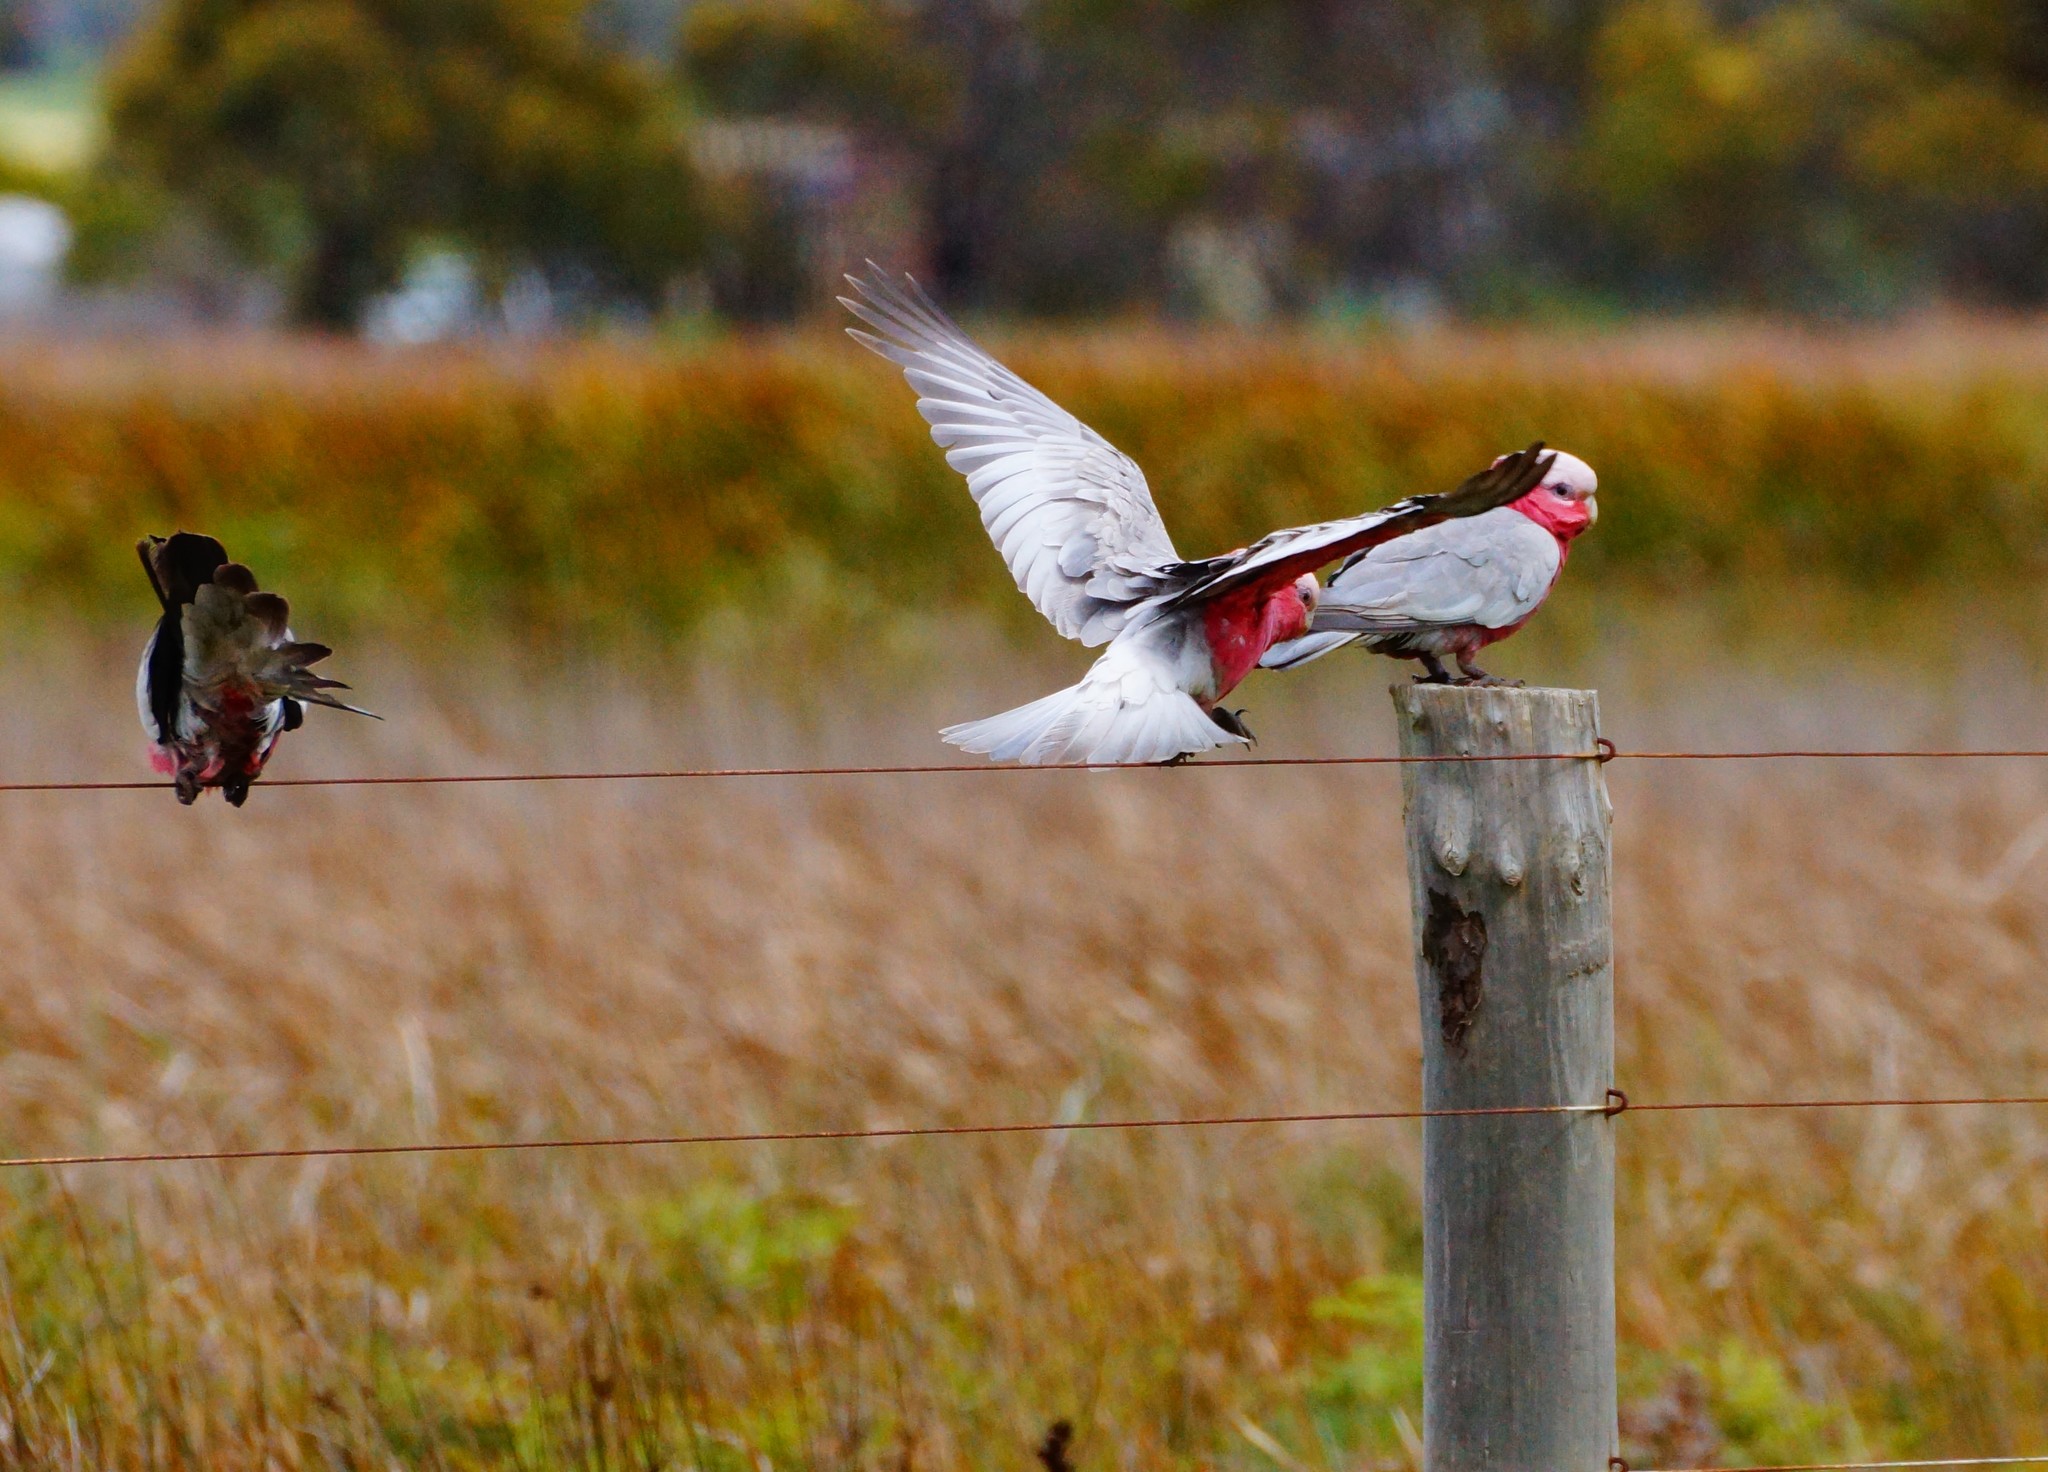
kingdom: Animalia
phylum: Chordata
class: Aves
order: Psittaciformes
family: Psittacidae
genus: Eolophus
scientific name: Eolophus roseicapilla
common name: Galah
